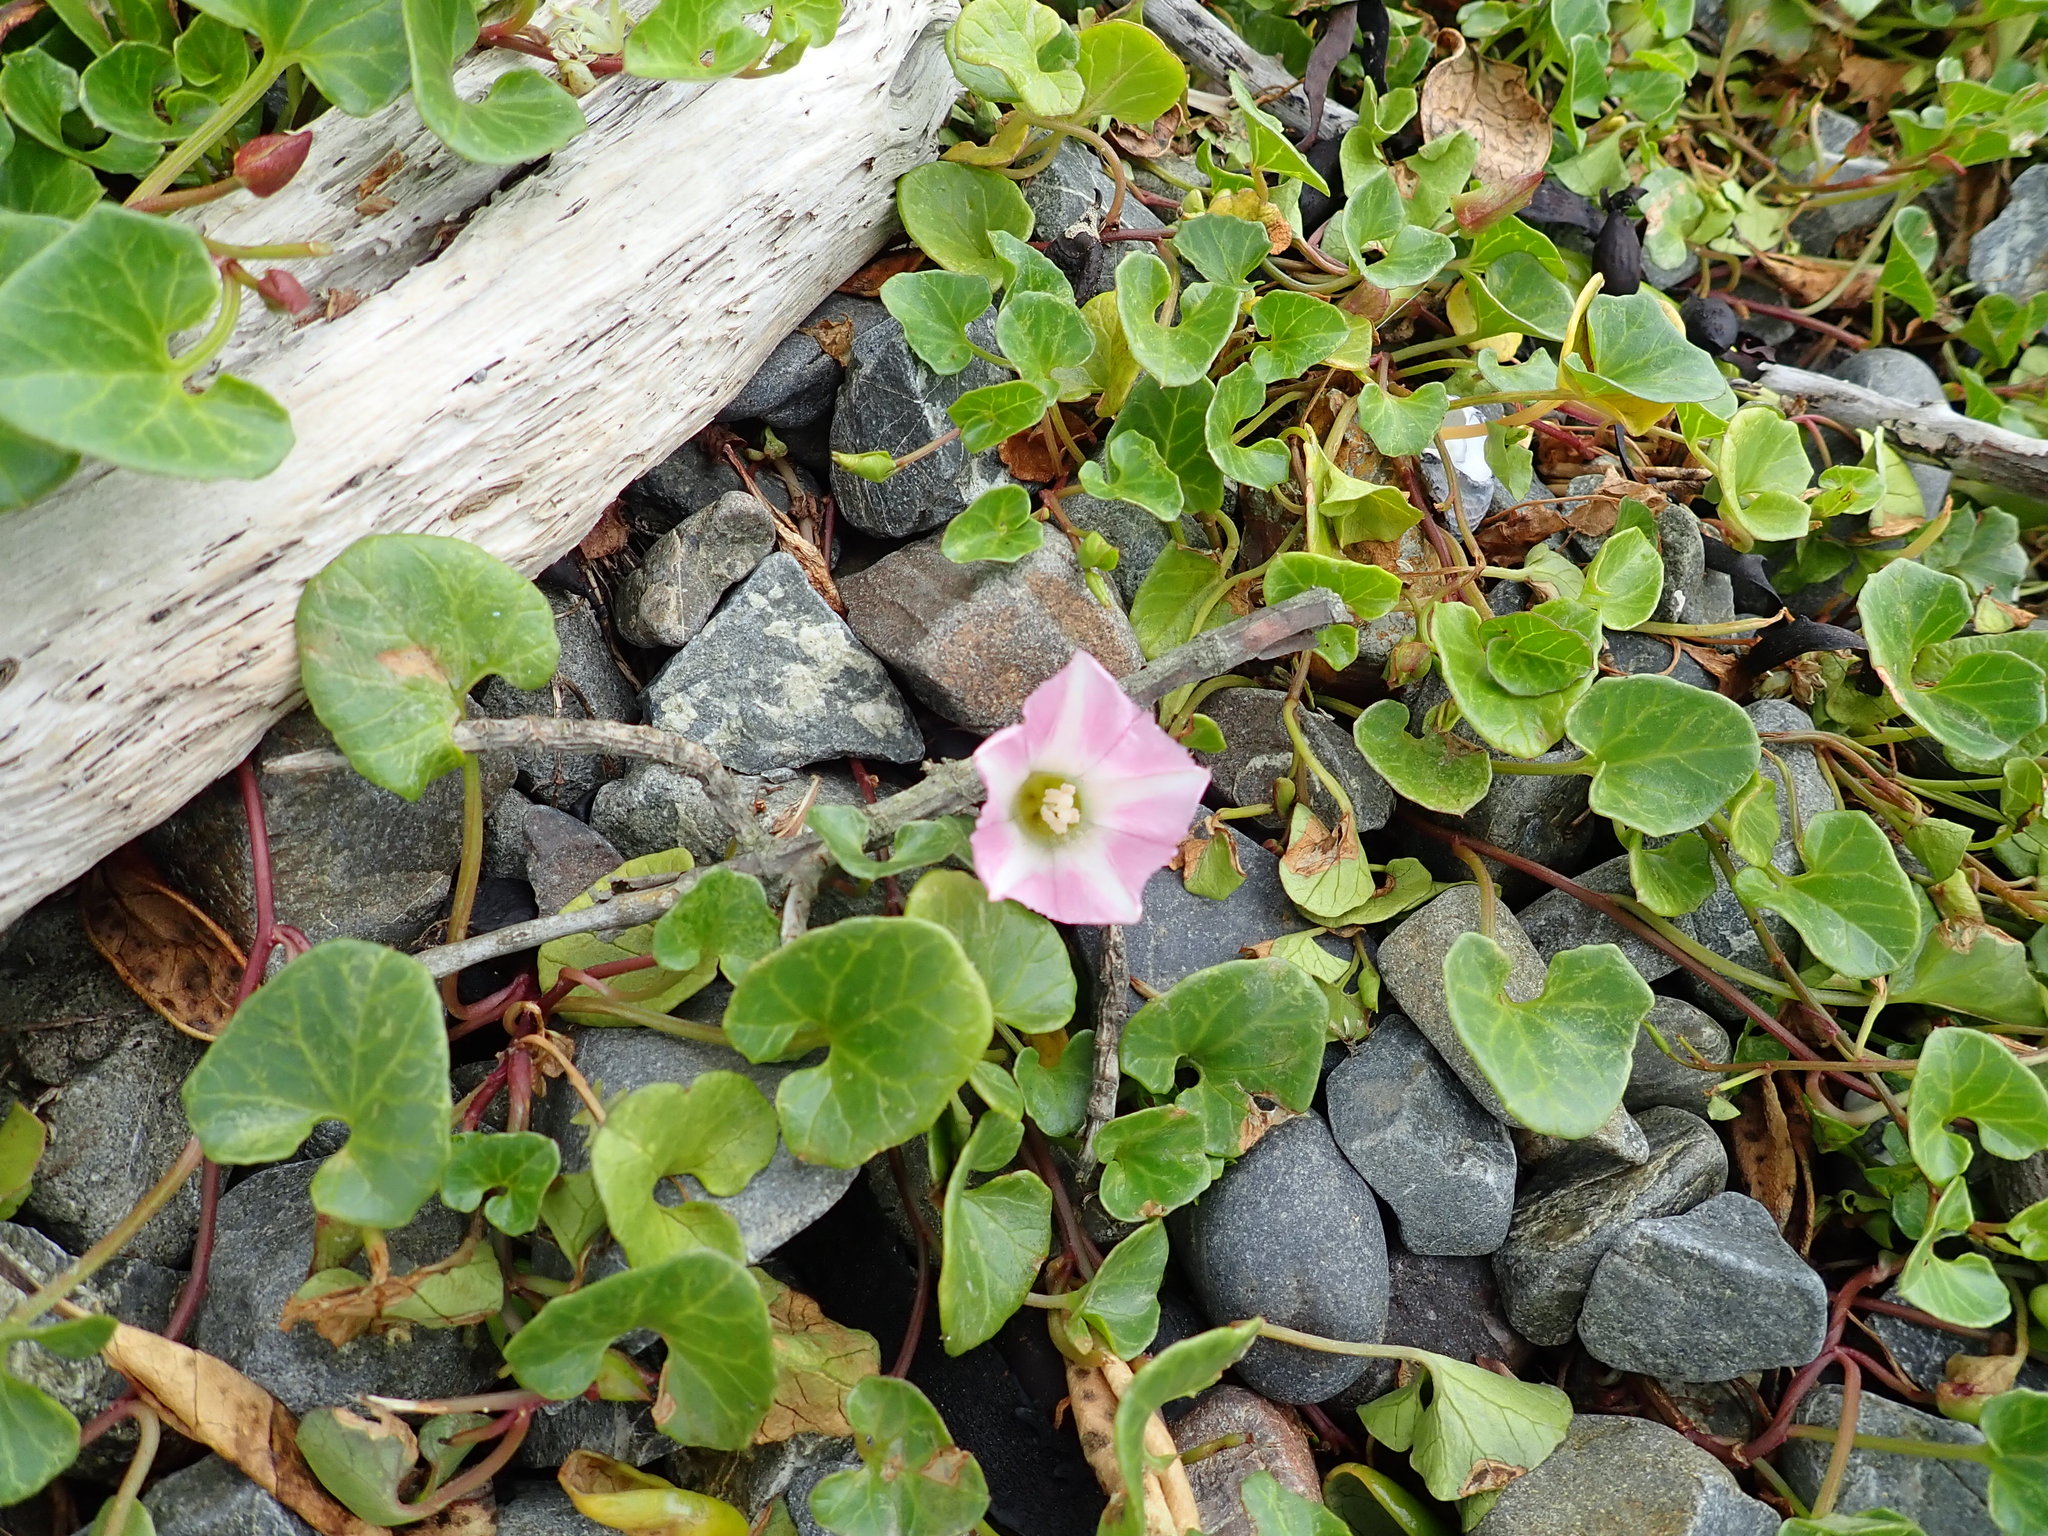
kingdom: Plantae
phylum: Tracheophyta
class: Magnoliopsida
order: Solanales
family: Convolvulaceae
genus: Calystegia
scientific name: Calystegia soldanella
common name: Sea bindweed
